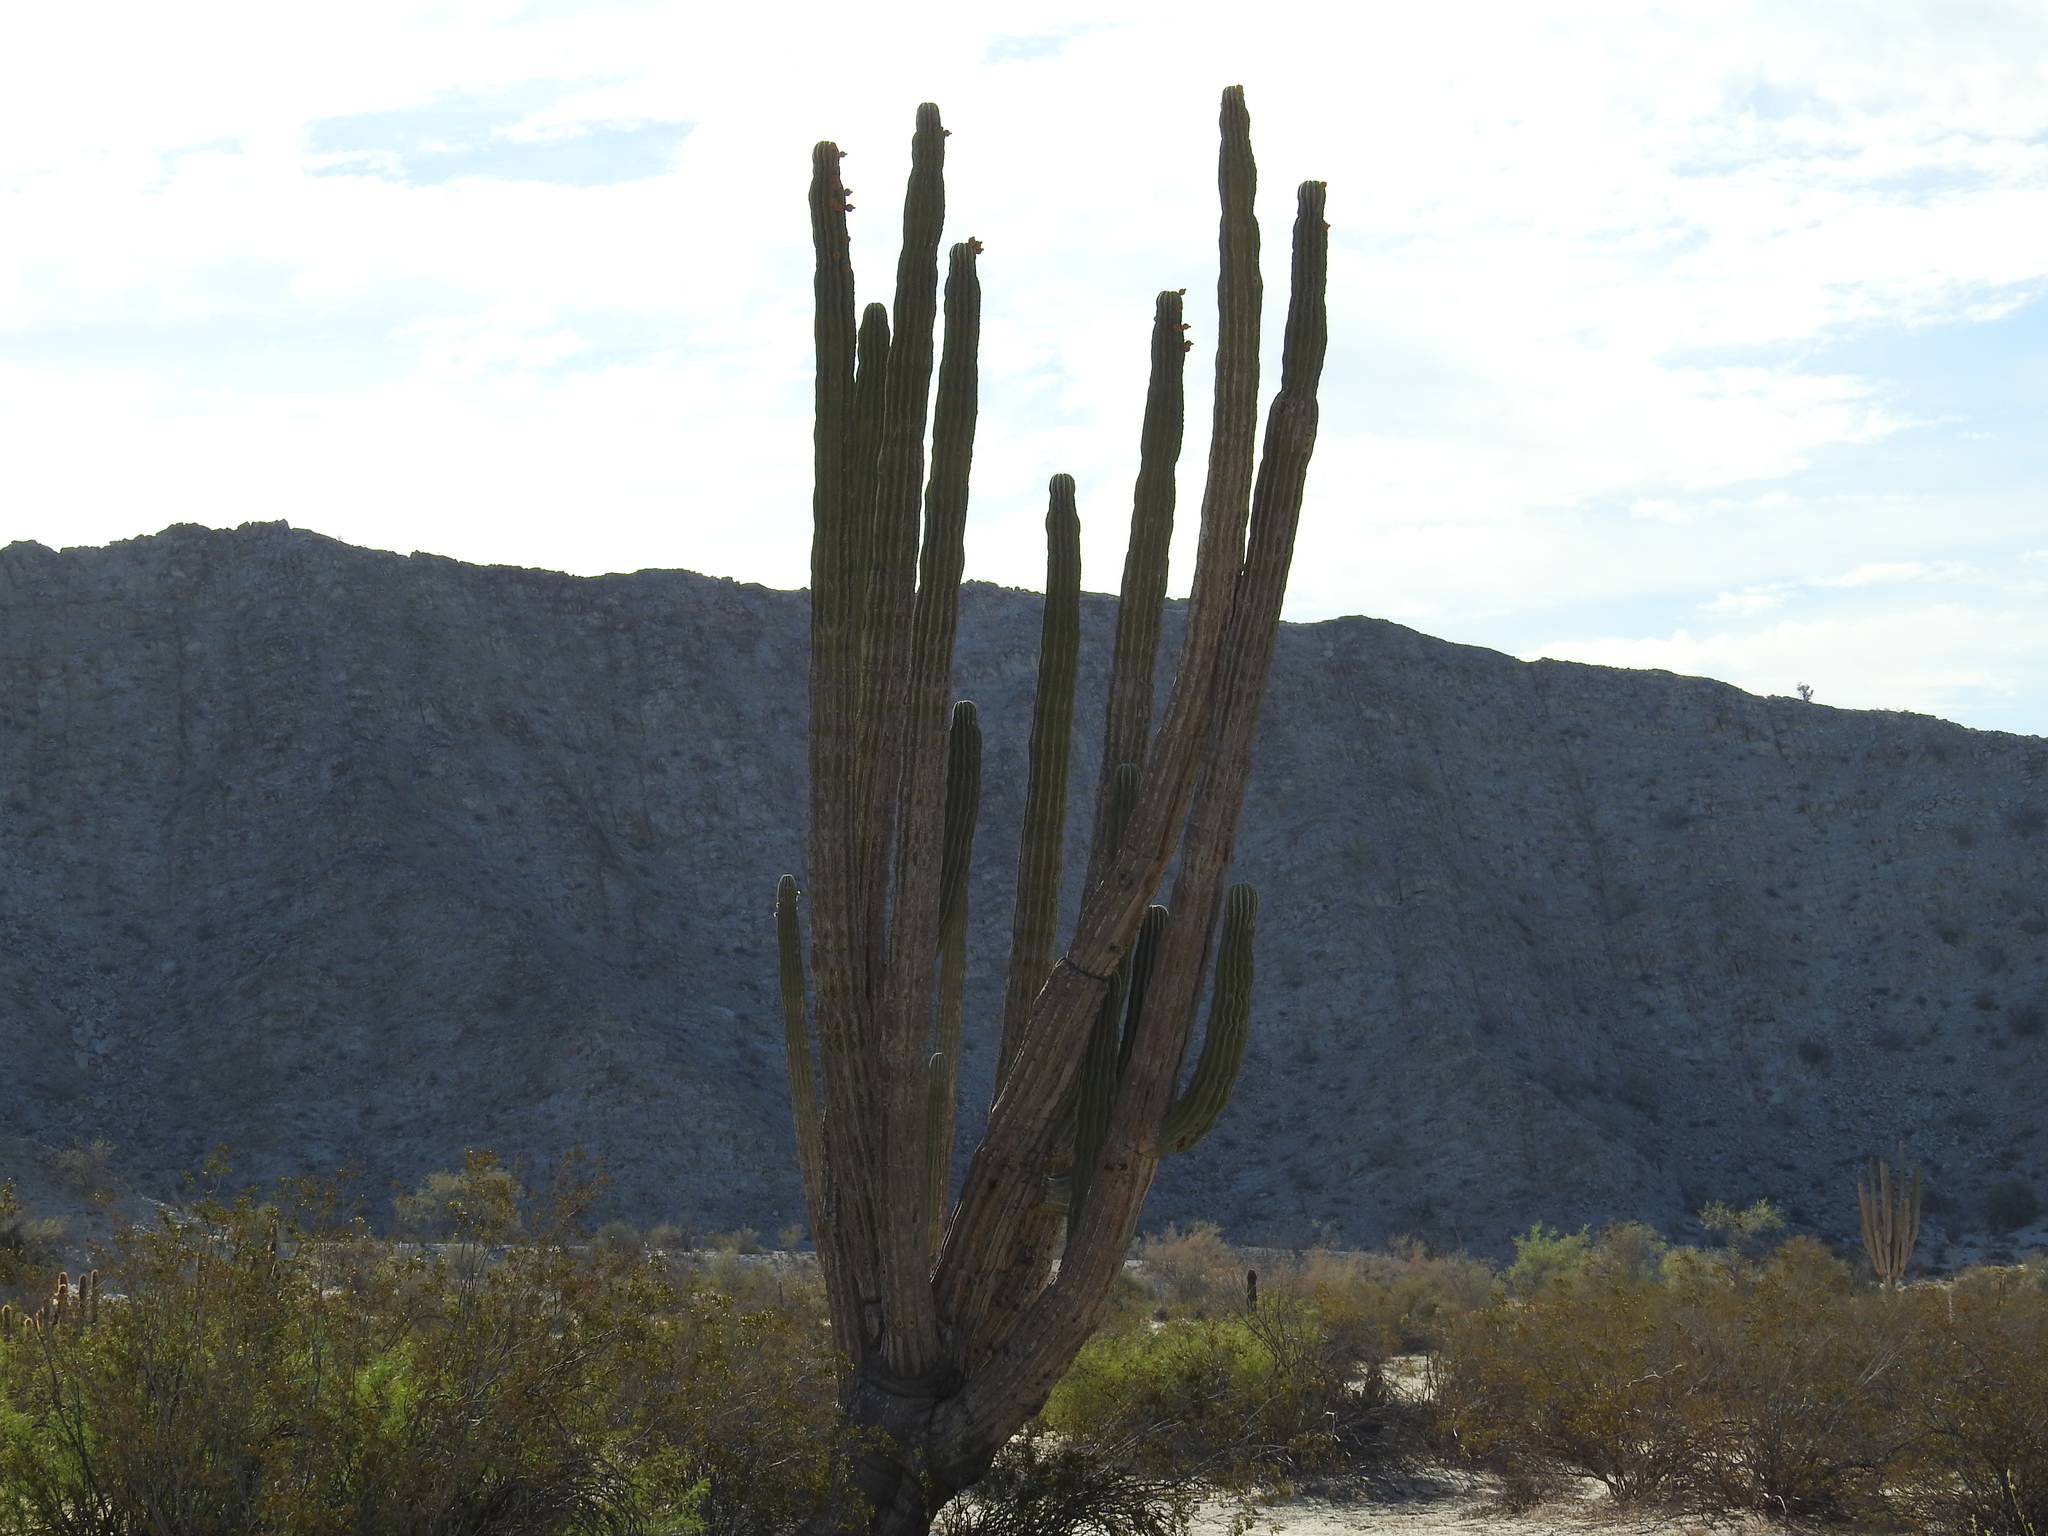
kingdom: Plantae
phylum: Tracheophyta
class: Magnoliopsida
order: Caryophyllales
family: Cactaceae
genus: Pachycereus
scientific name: Pachycereus pringlei
